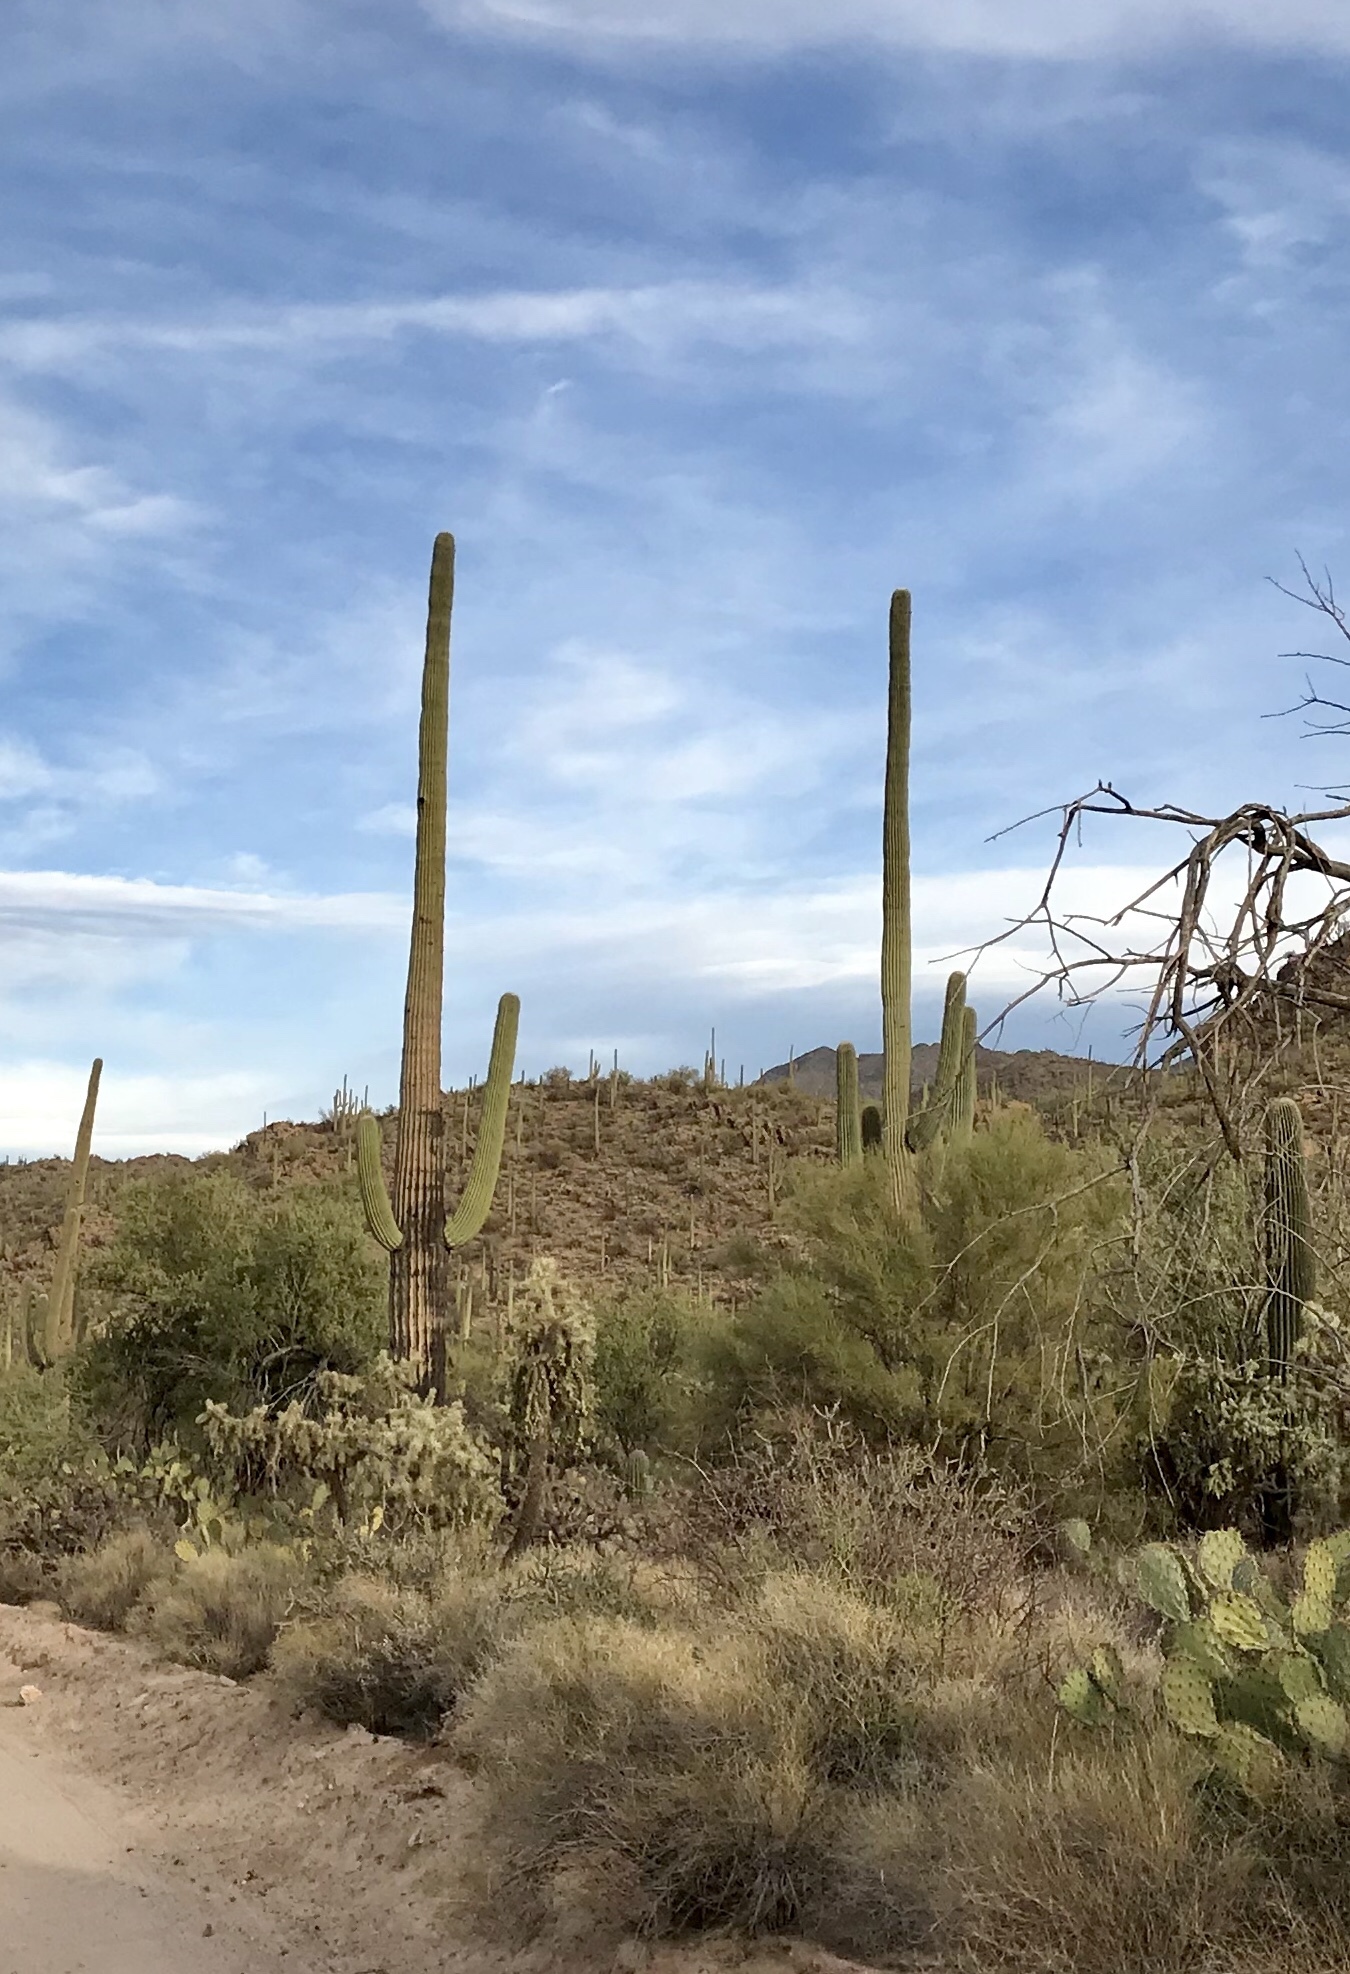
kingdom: Plantae
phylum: Tracheophyta
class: Magnoliopsida
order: Caryophyllales
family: Cactaceae
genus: Carnegiea
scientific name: Carnegiea gigantea
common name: Saguaro
